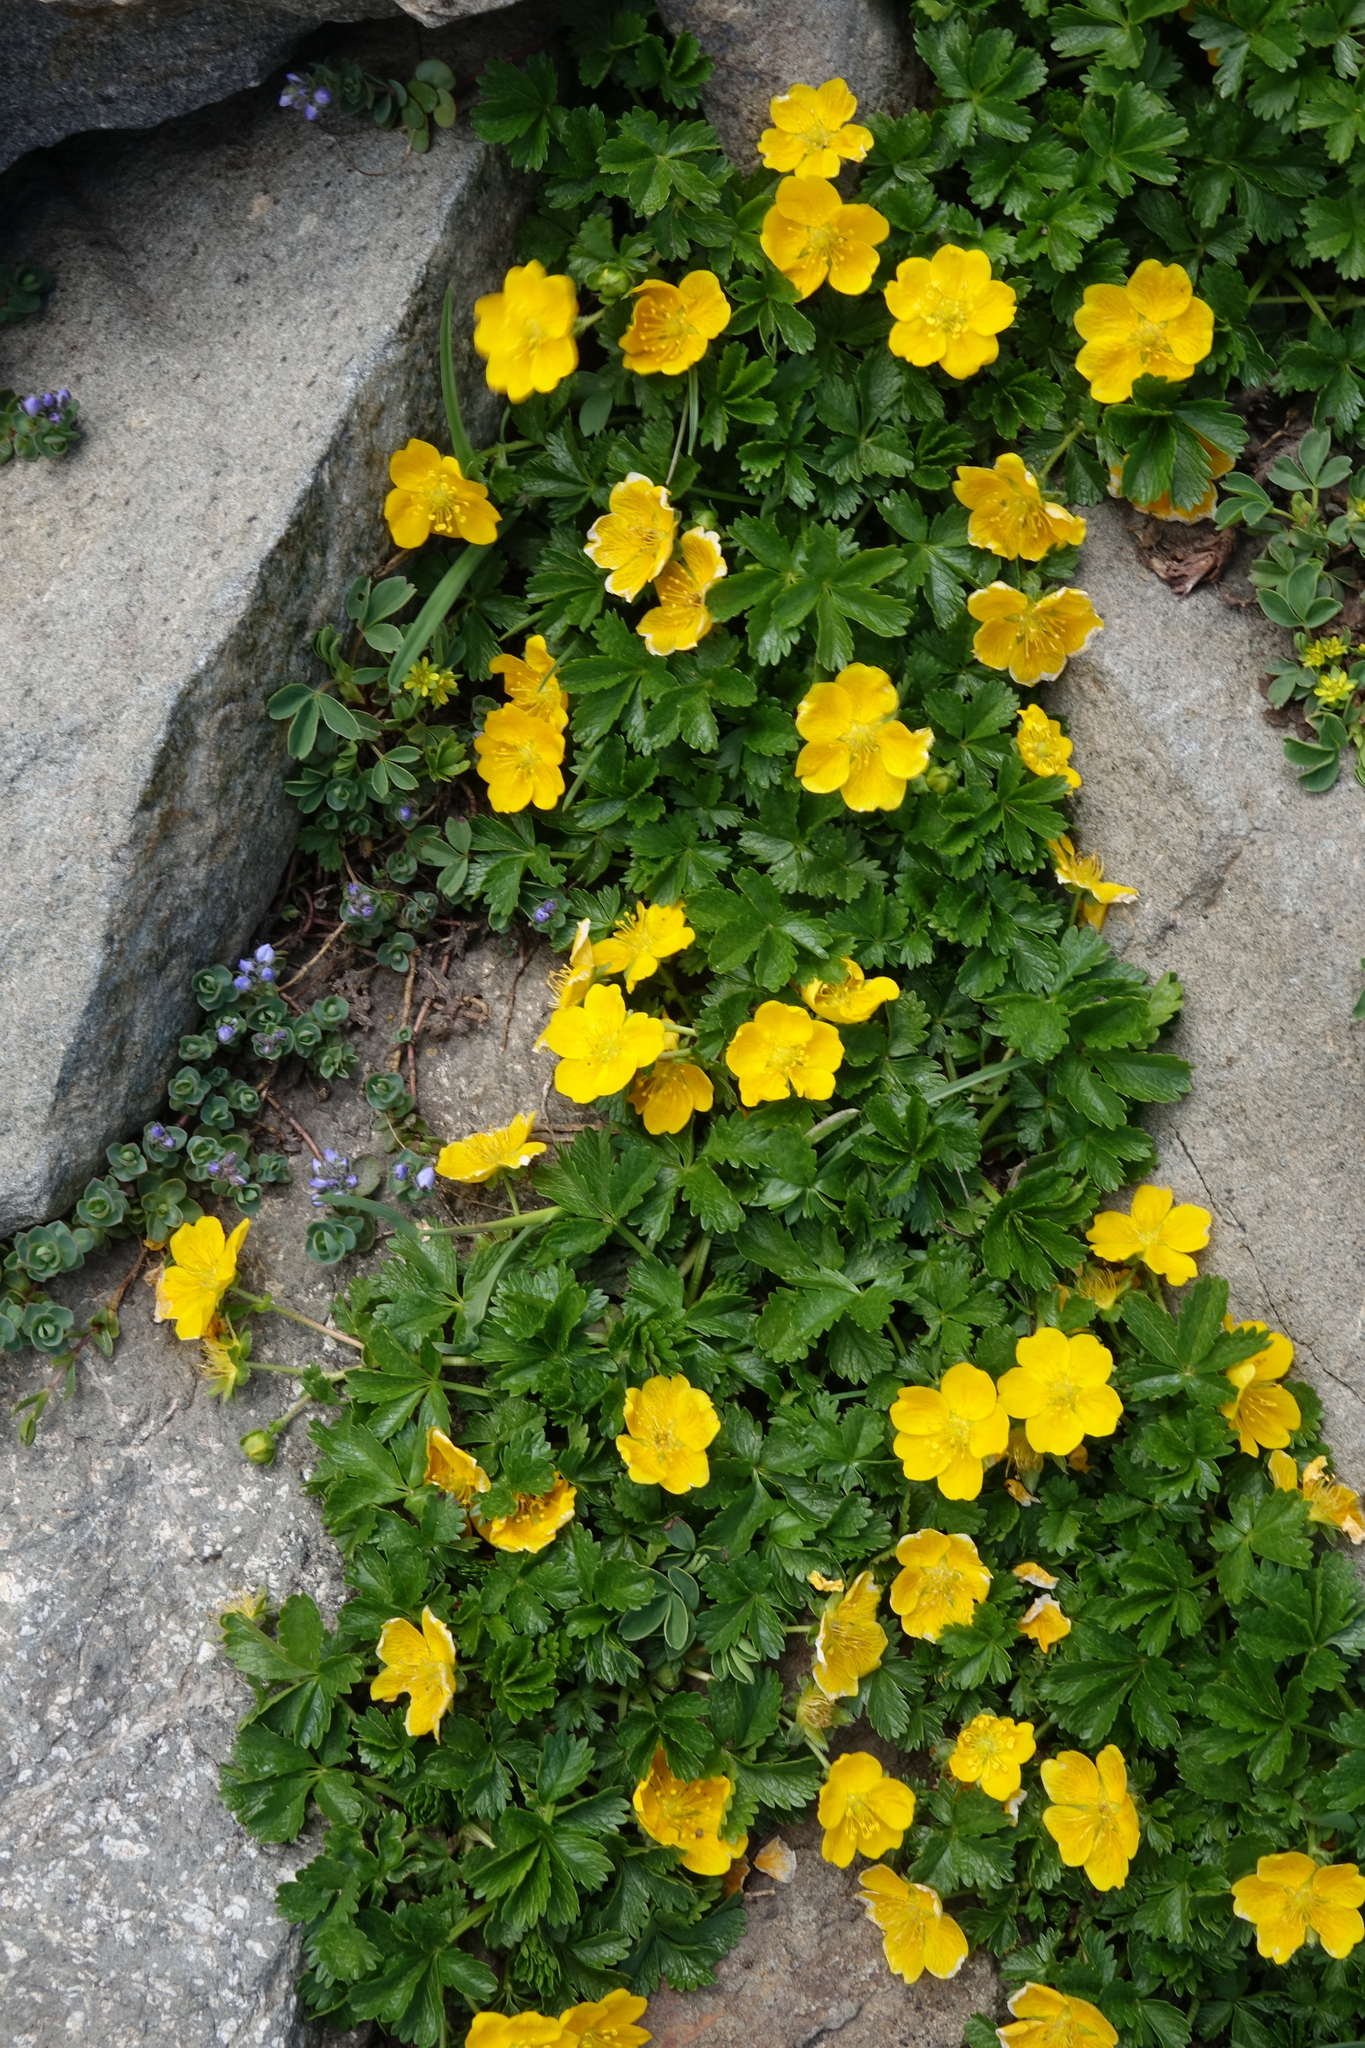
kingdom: Plantae
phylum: Tracheophyta
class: Magnoliopsida
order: Rosales
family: Rosaceae
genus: Potentilla
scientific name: Potentilla ruprechtii
